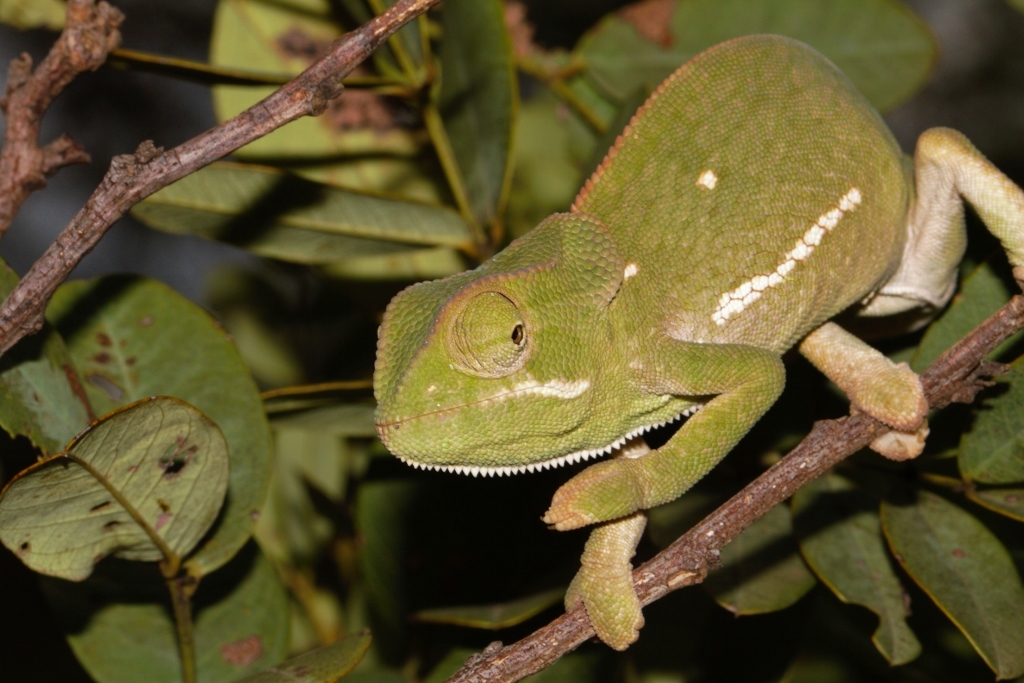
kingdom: Animalia
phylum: Chordata
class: Squamata
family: Chamaeleonidae
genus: Chamaeleo
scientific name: Chamaeleo dilepis
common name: Flapneck chameleon
